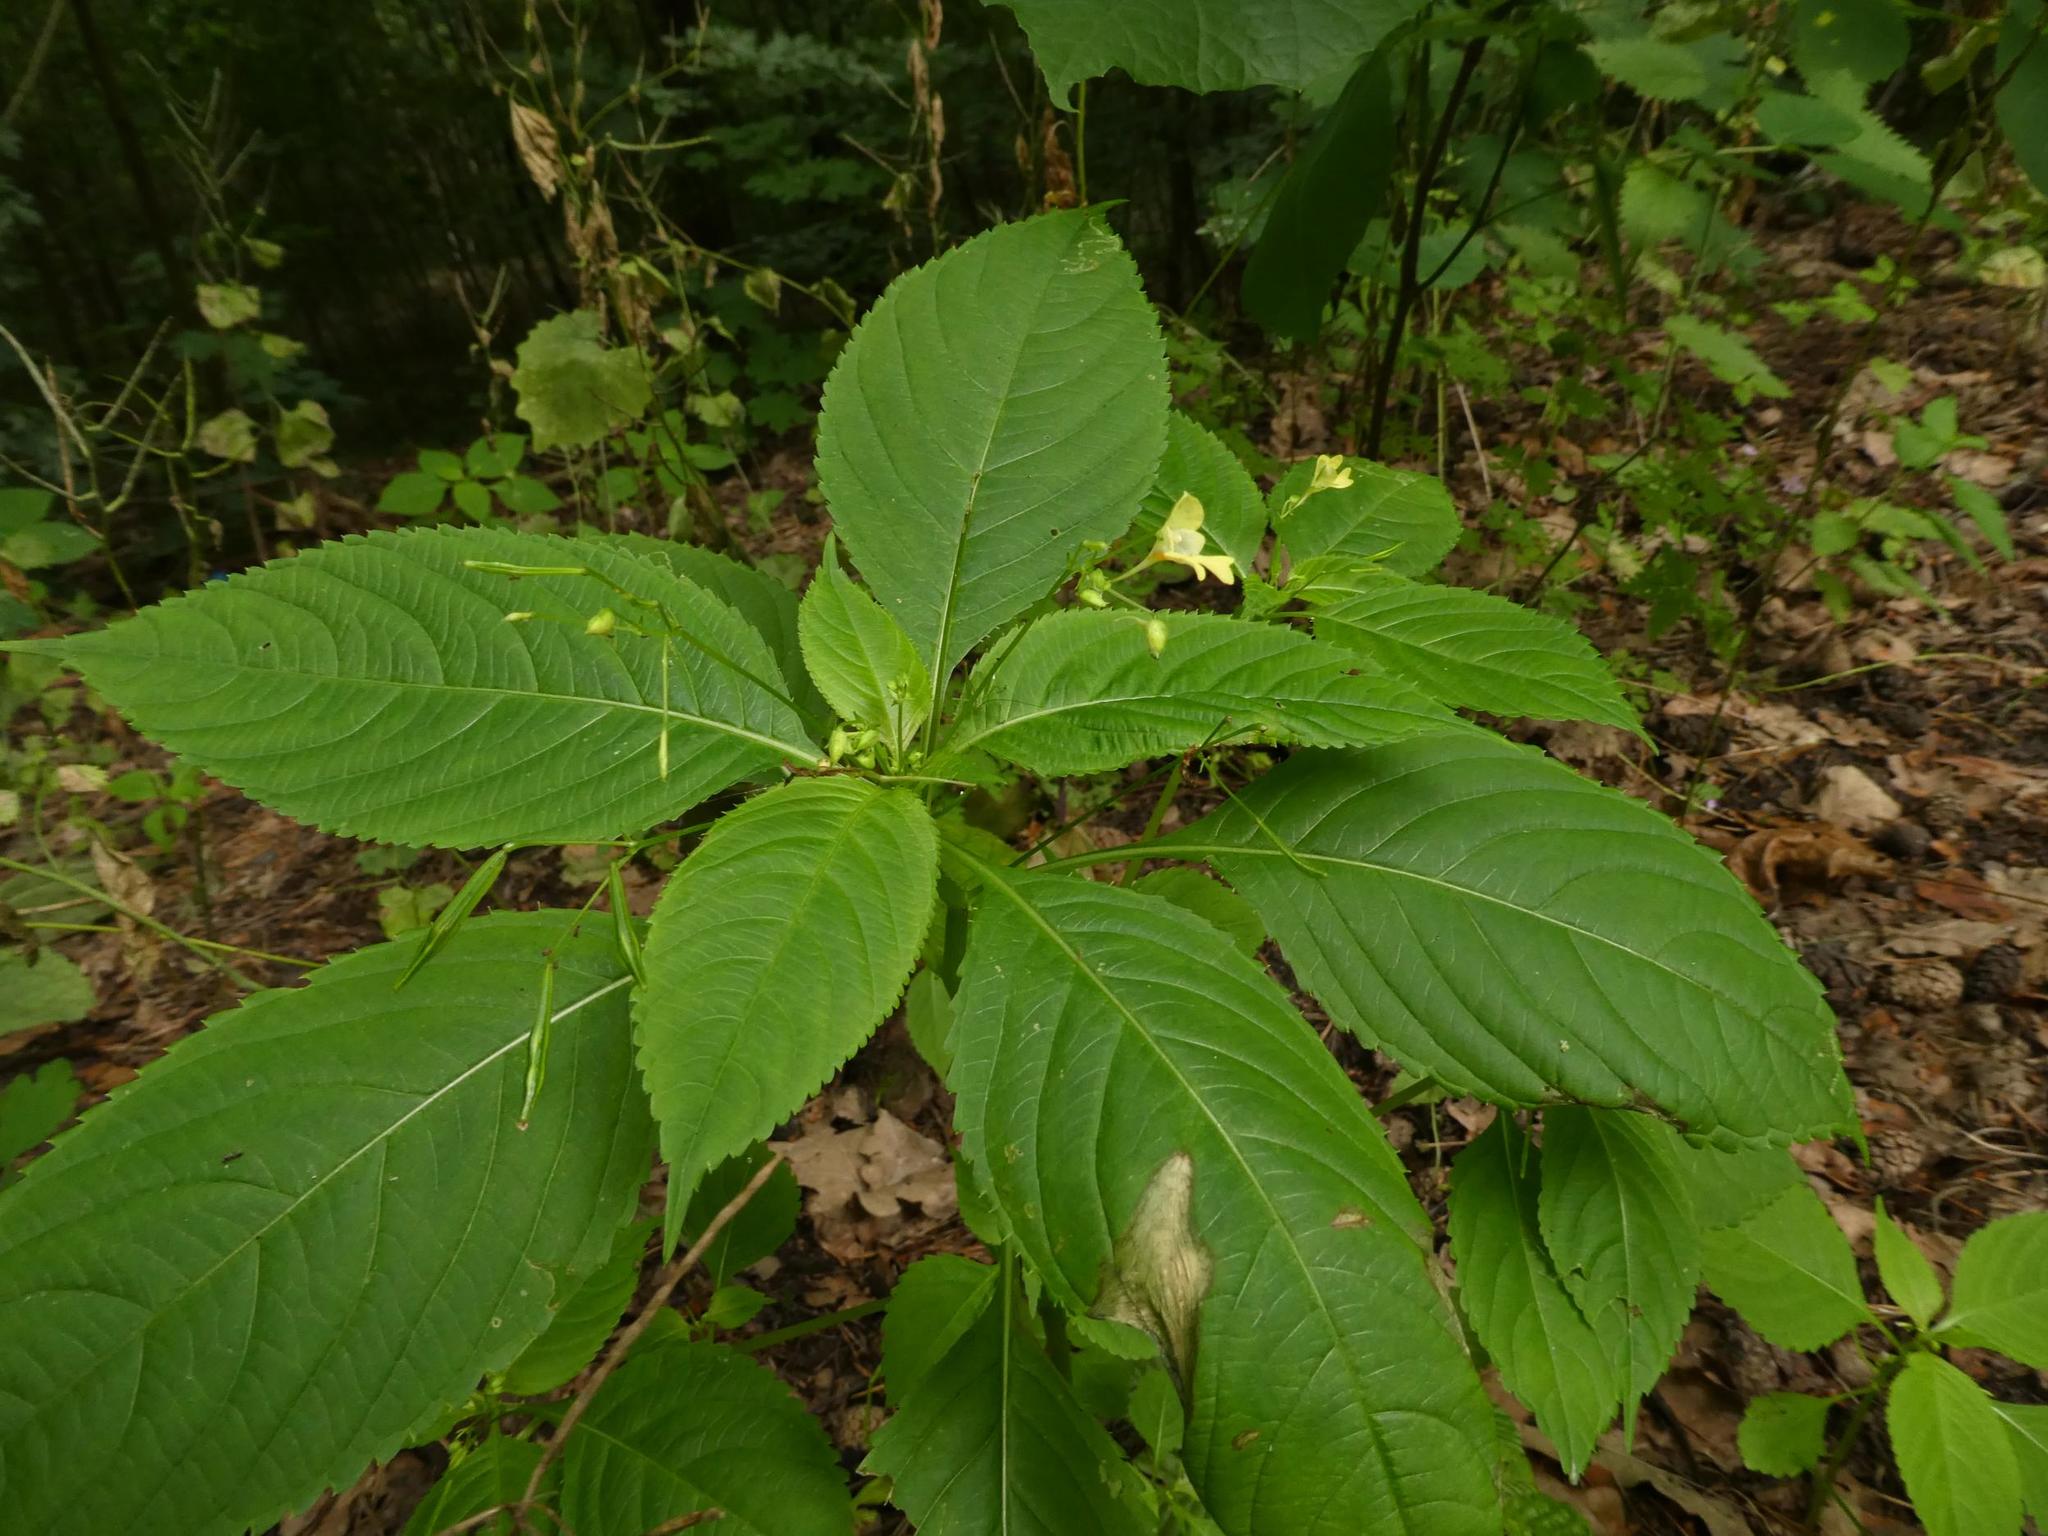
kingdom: Plantae
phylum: Tracheophyta
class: Magnoliopsida
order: Ericales
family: Balsaminaceae
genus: Impatiens
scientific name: Impatiens parviflora
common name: Small balsam
